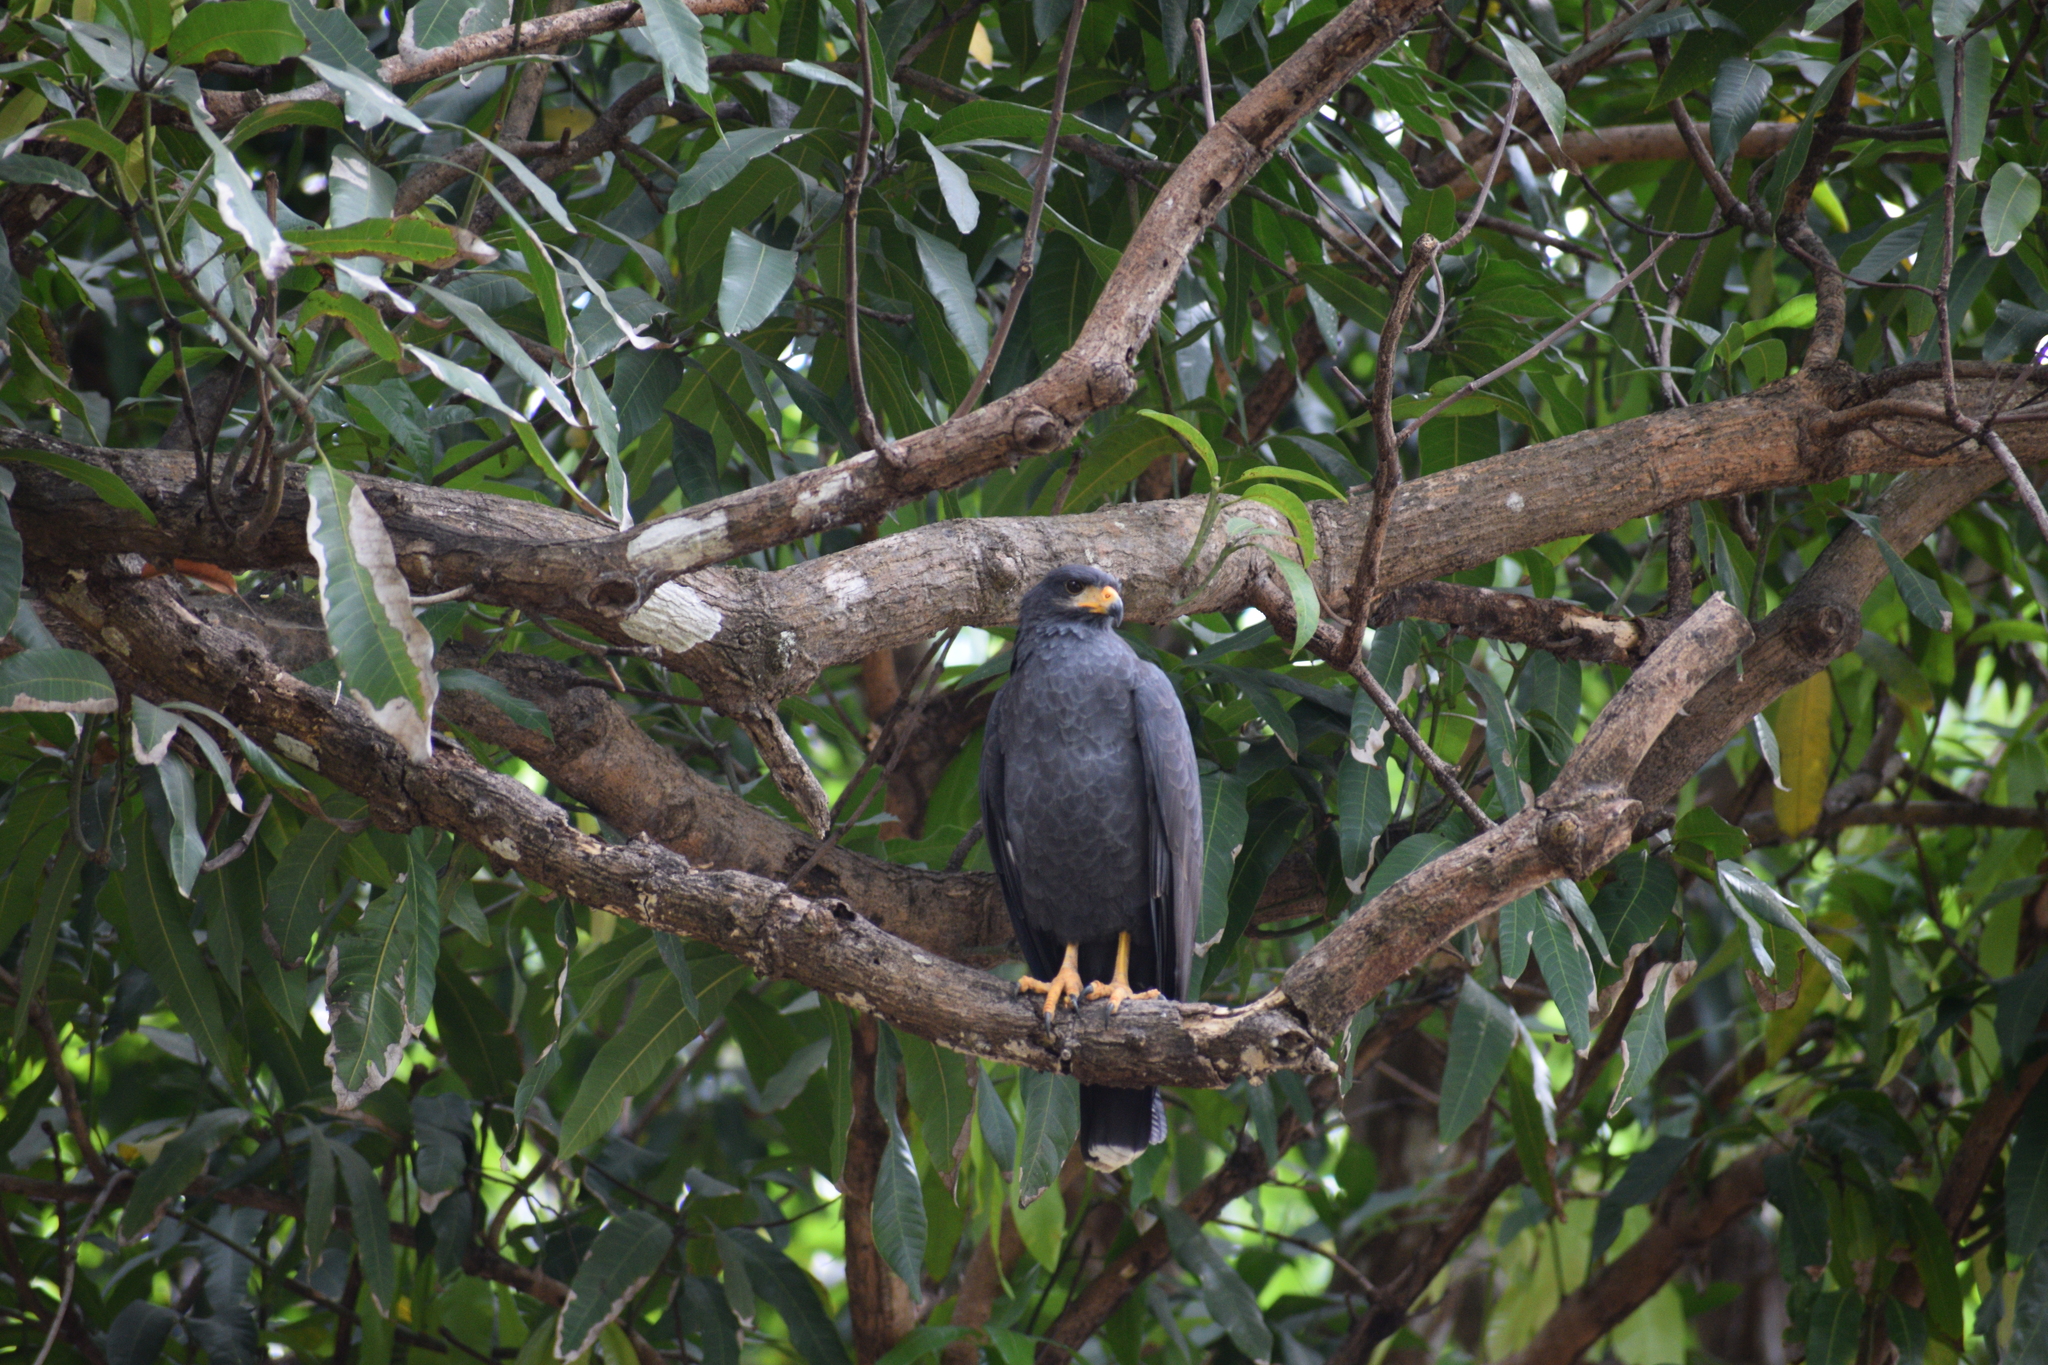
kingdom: Animalia
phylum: Chordata
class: Aves
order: Accipitriformes
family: Accipitridae
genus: Buteogallus
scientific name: Buteogallus anthracinus
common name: Common black hawk
